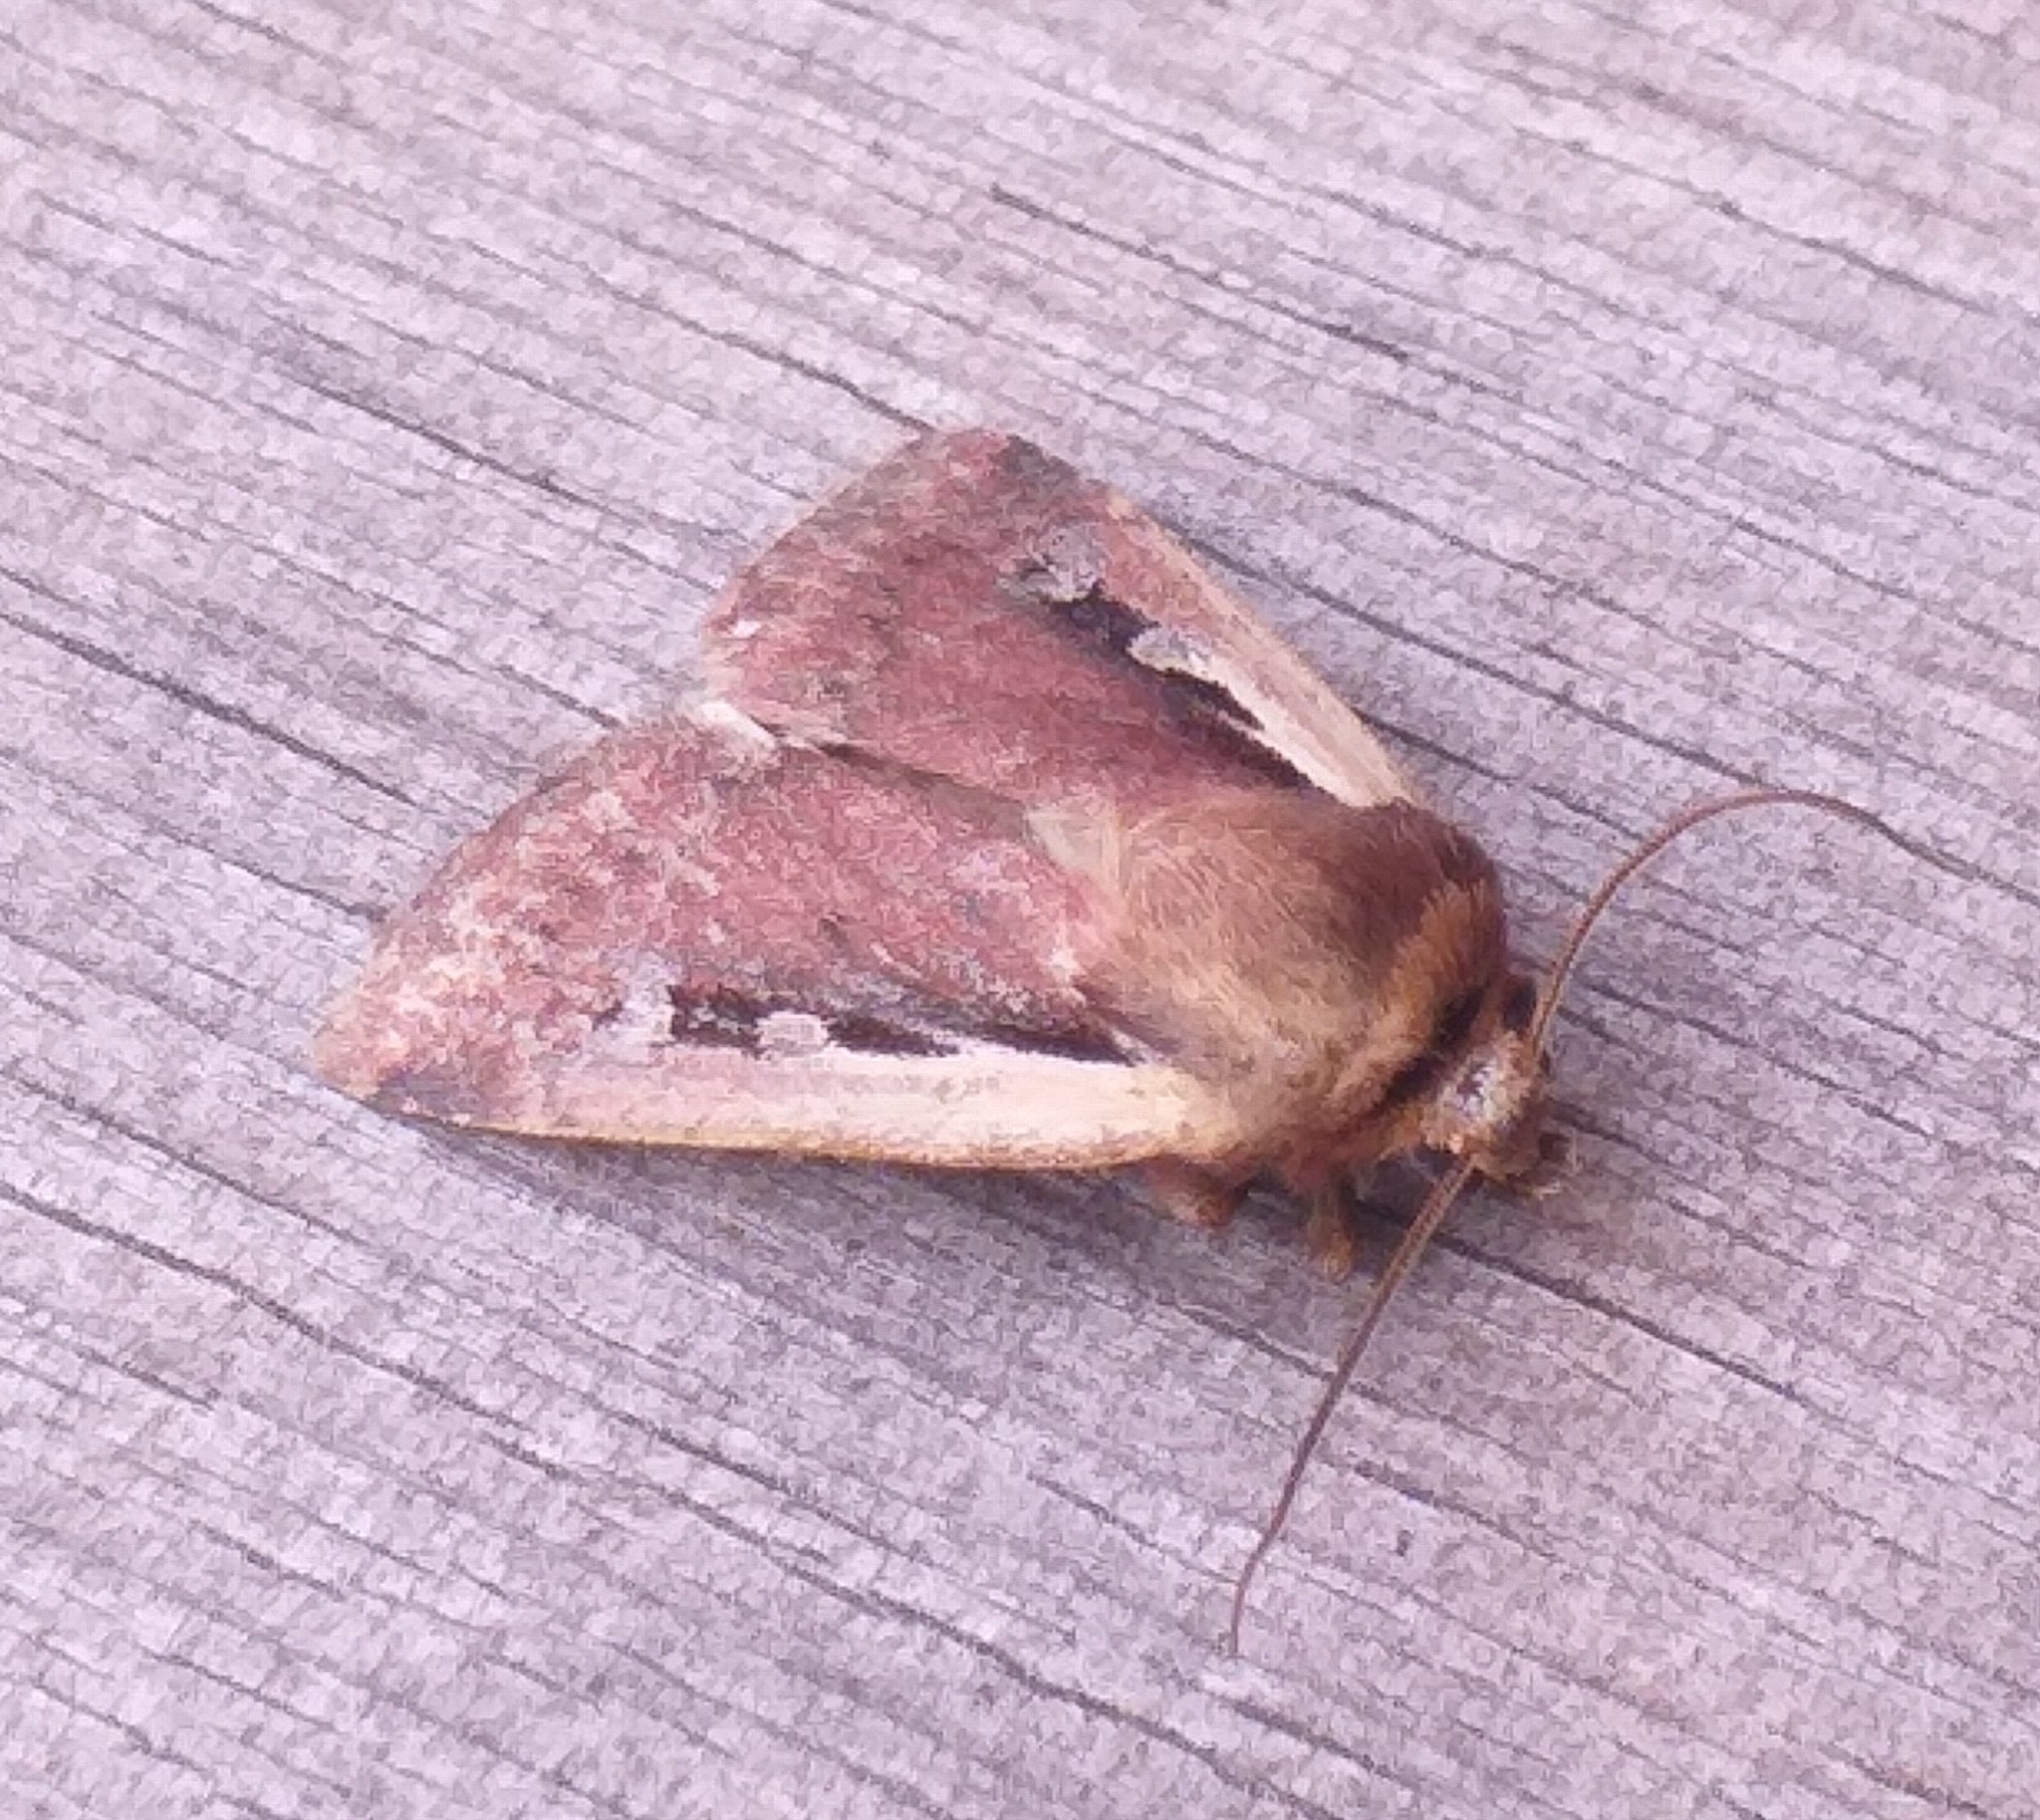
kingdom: Animalia
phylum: Arthropoda
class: Insecta
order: Lepidoptera
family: Noctuidae
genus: Ochropleura
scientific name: Ochropleura plecta
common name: Flame shoulder
